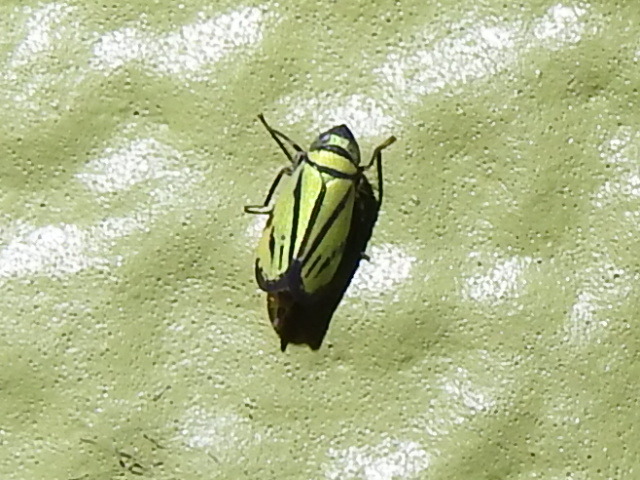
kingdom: Animalia
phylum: Arthropoda
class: Insecta
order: Hemiptera
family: Cicadellidae
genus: Stirellus
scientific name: Stirellus bicolor
